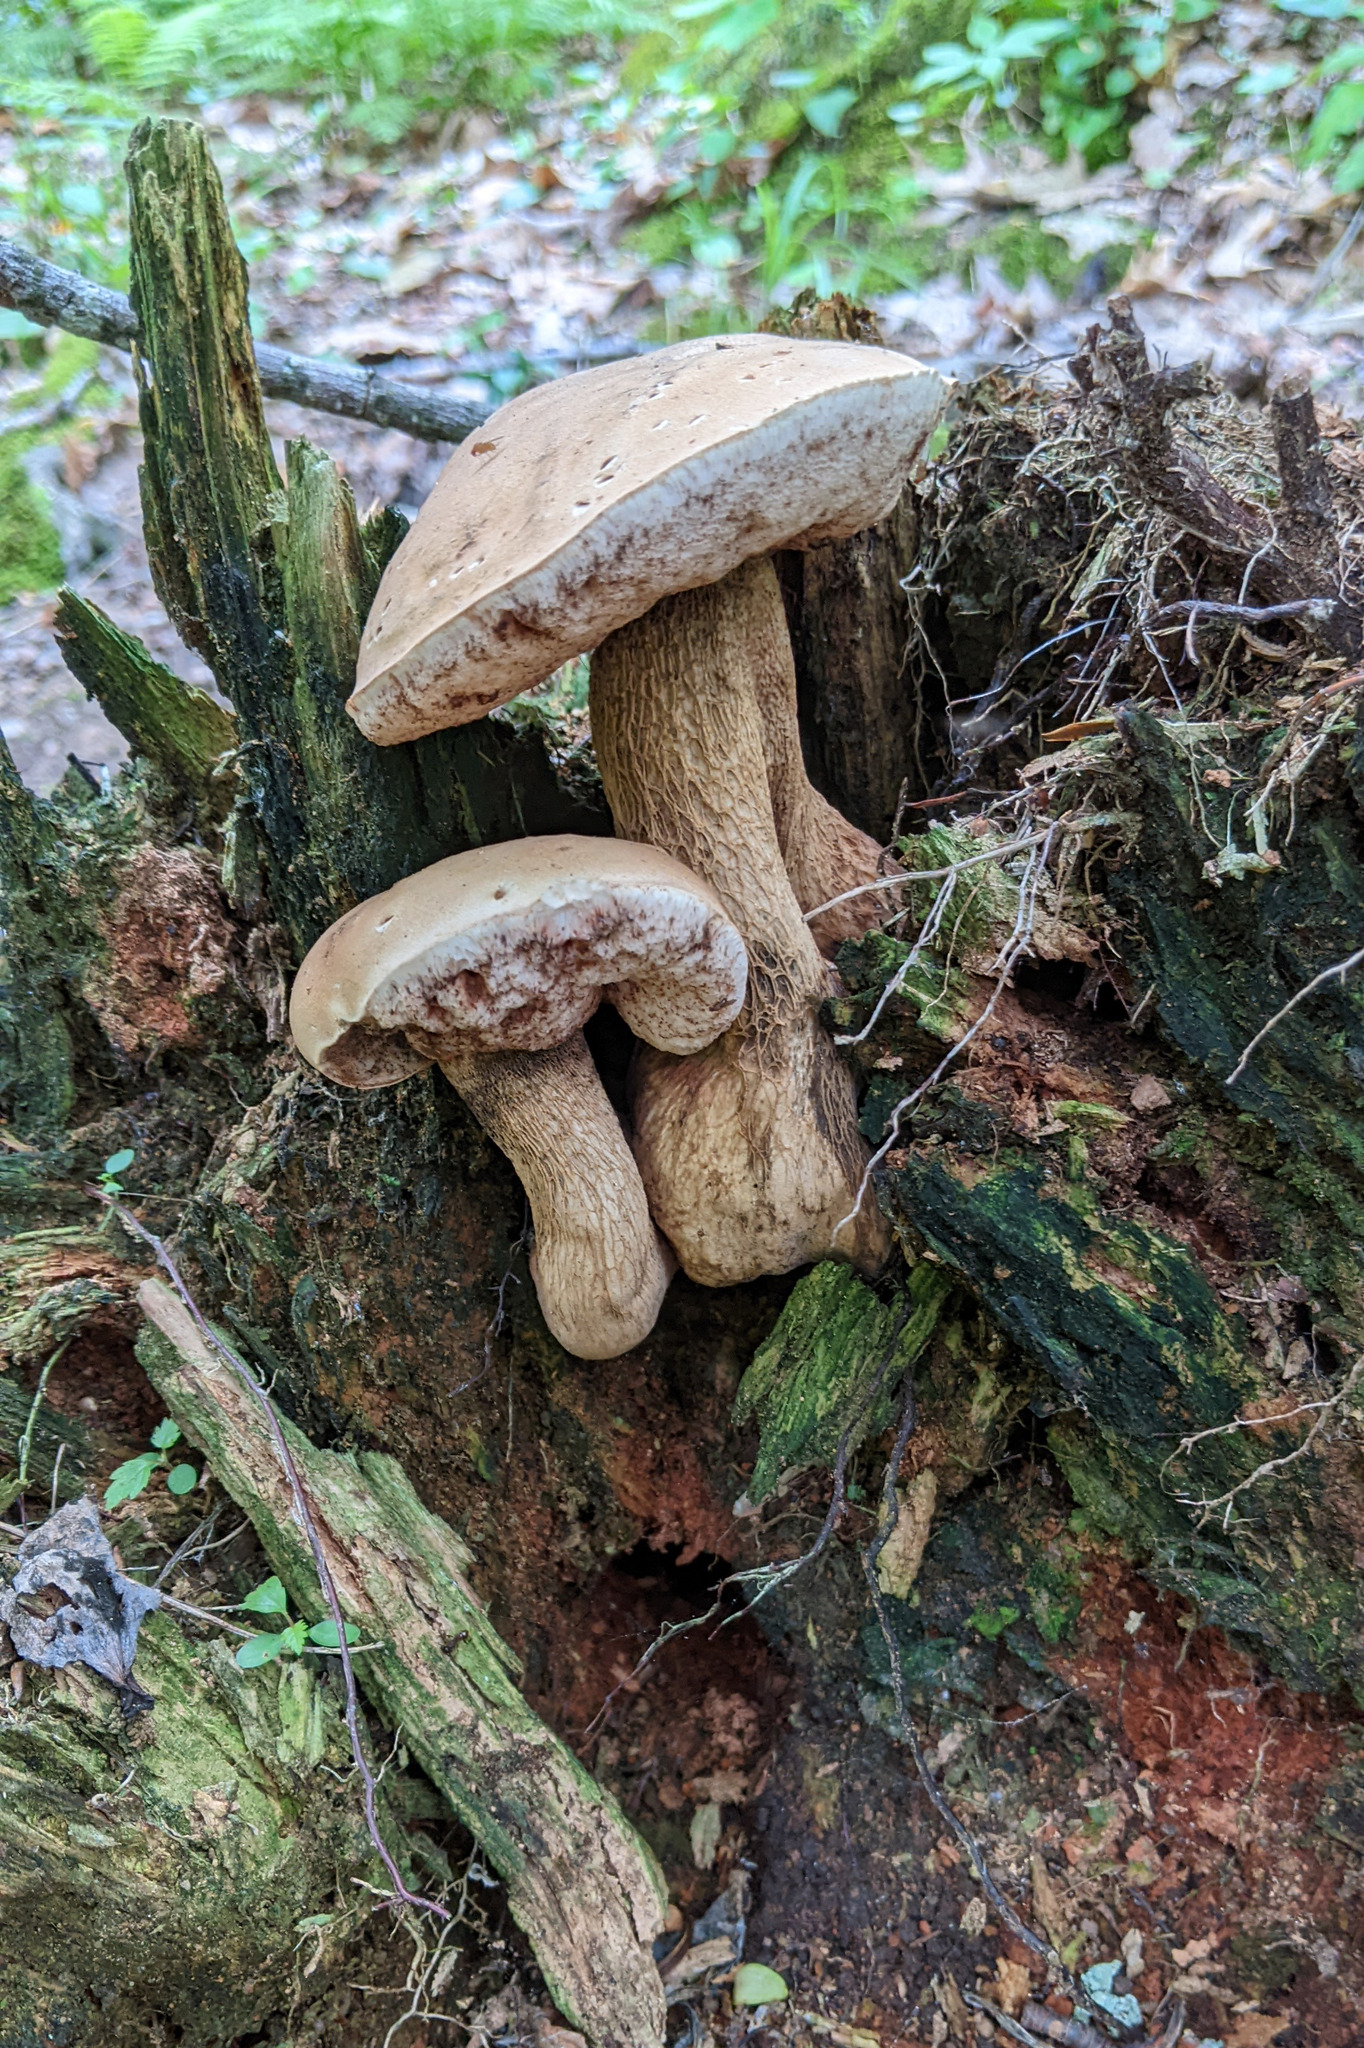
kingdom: Fungi
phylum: Basidiomycota
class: Agaricomycetes
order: Boletales
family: Boletaceae
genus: Tylopilus
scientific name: Tylopilus felleus
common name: Bitter bolete
